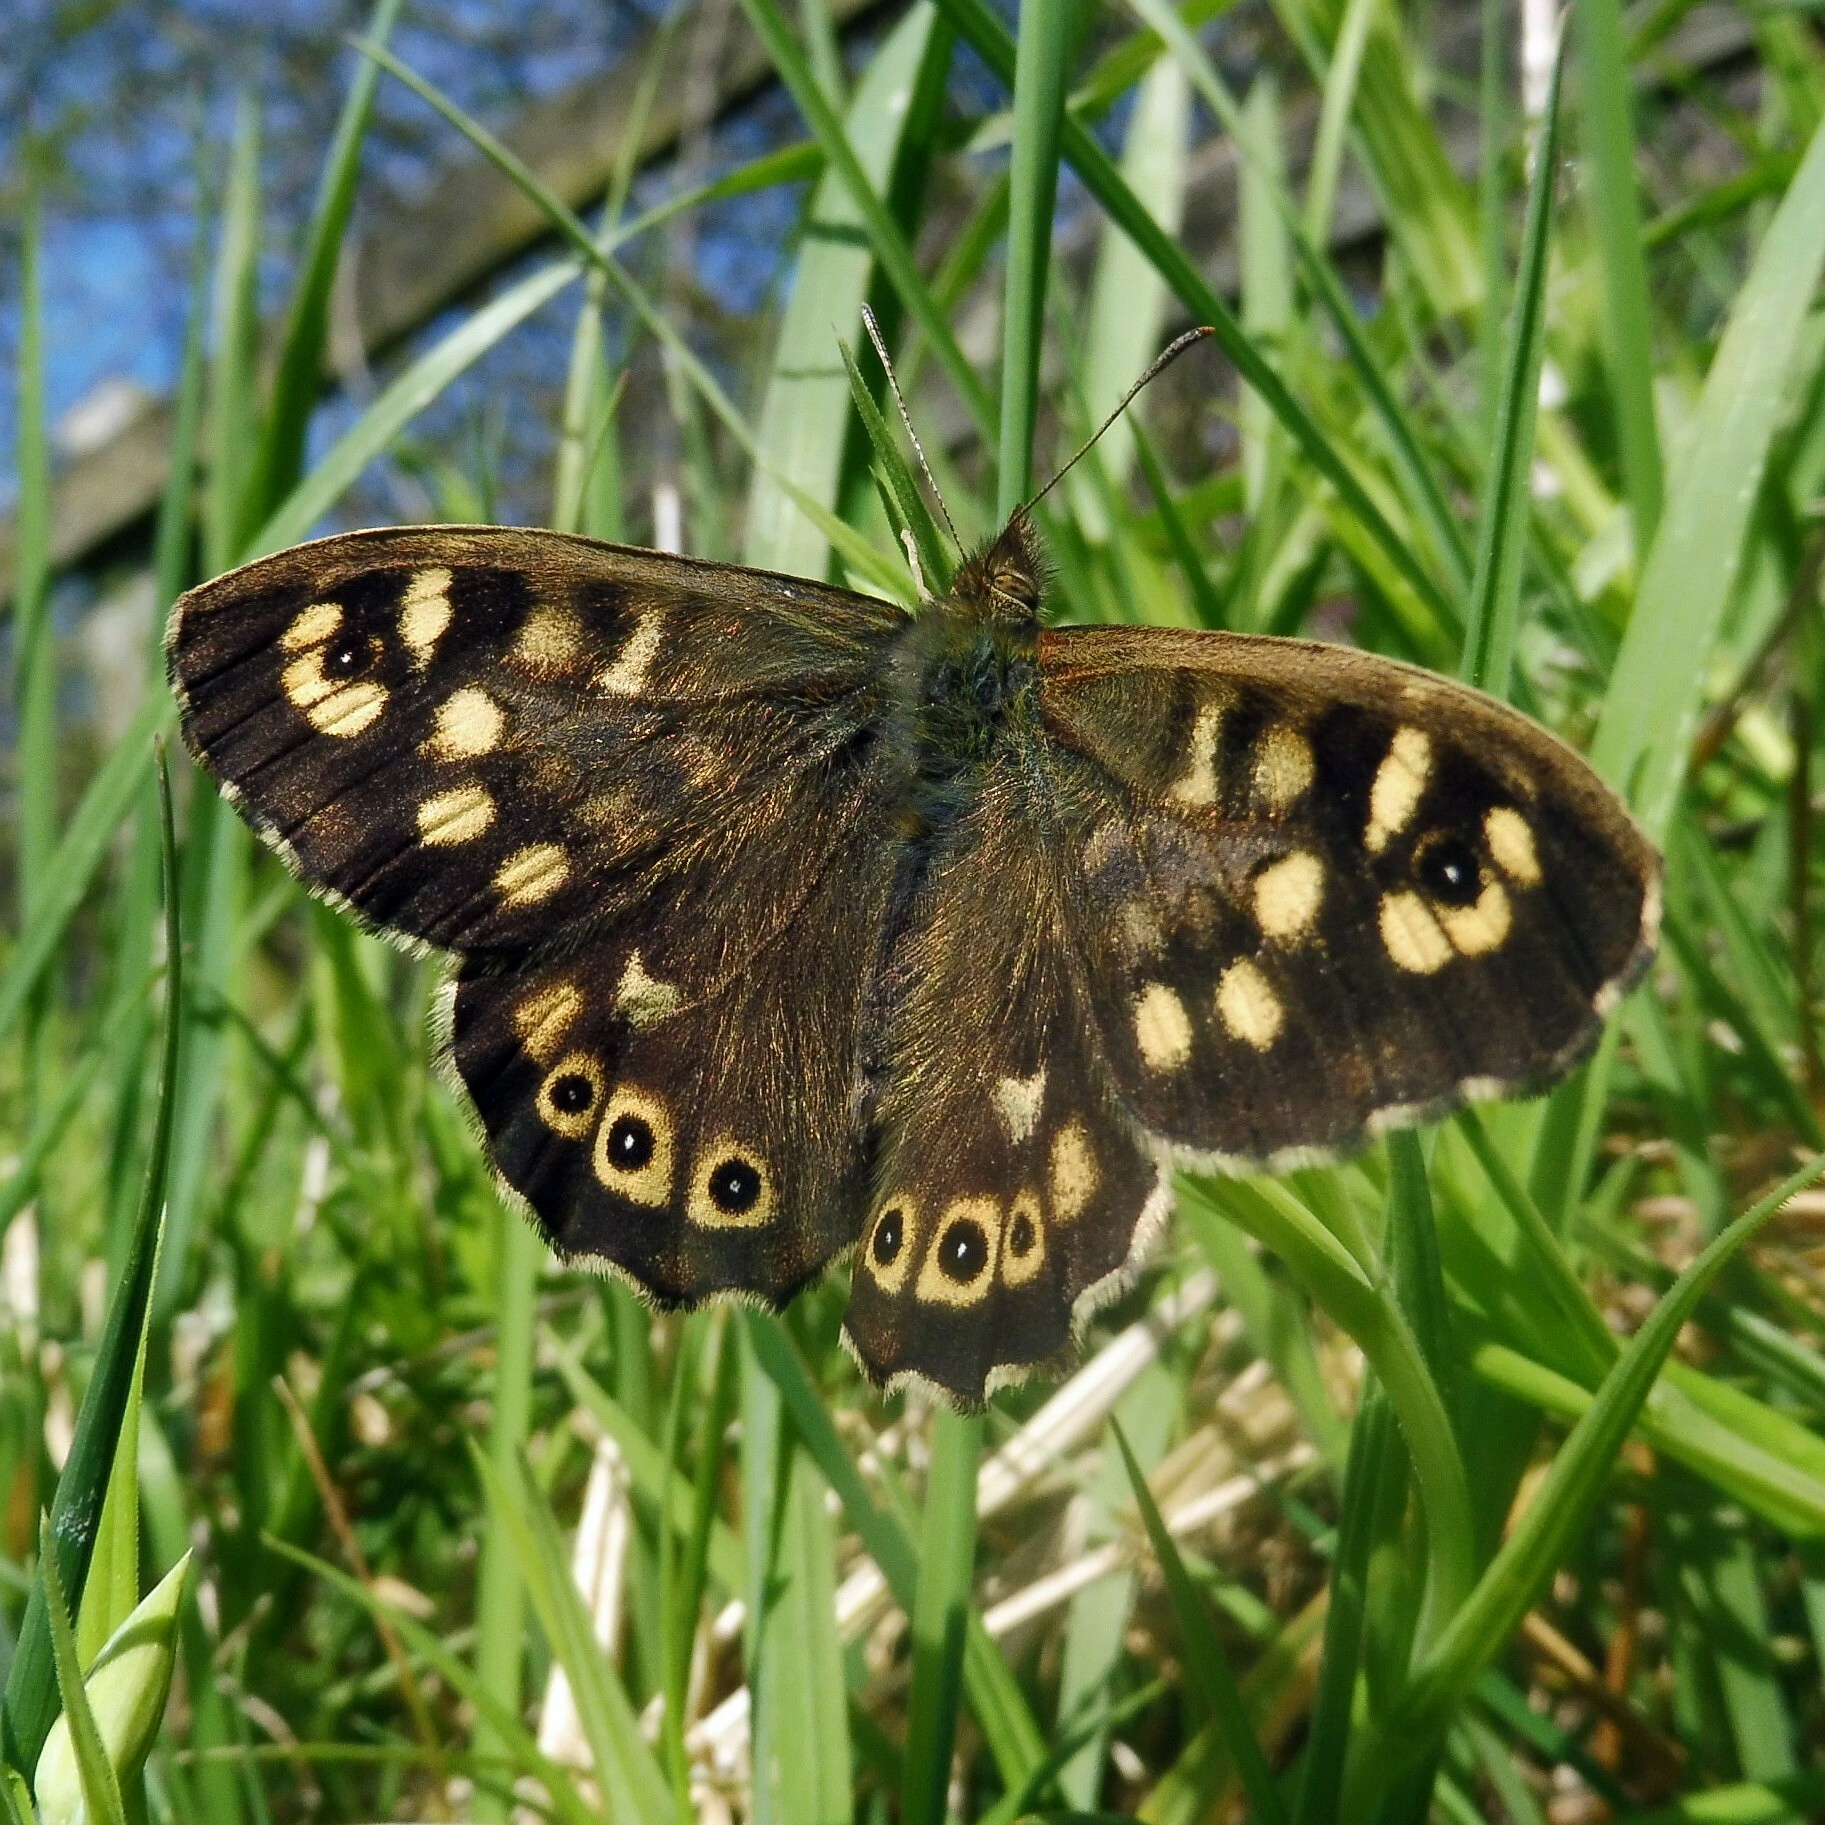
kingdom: Animalia
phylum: Arthropoda
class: Insecta
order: Lepidoptera
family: Nymphalidae
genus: Pararge
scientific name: Pararge aegeria
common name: Speckled wood
